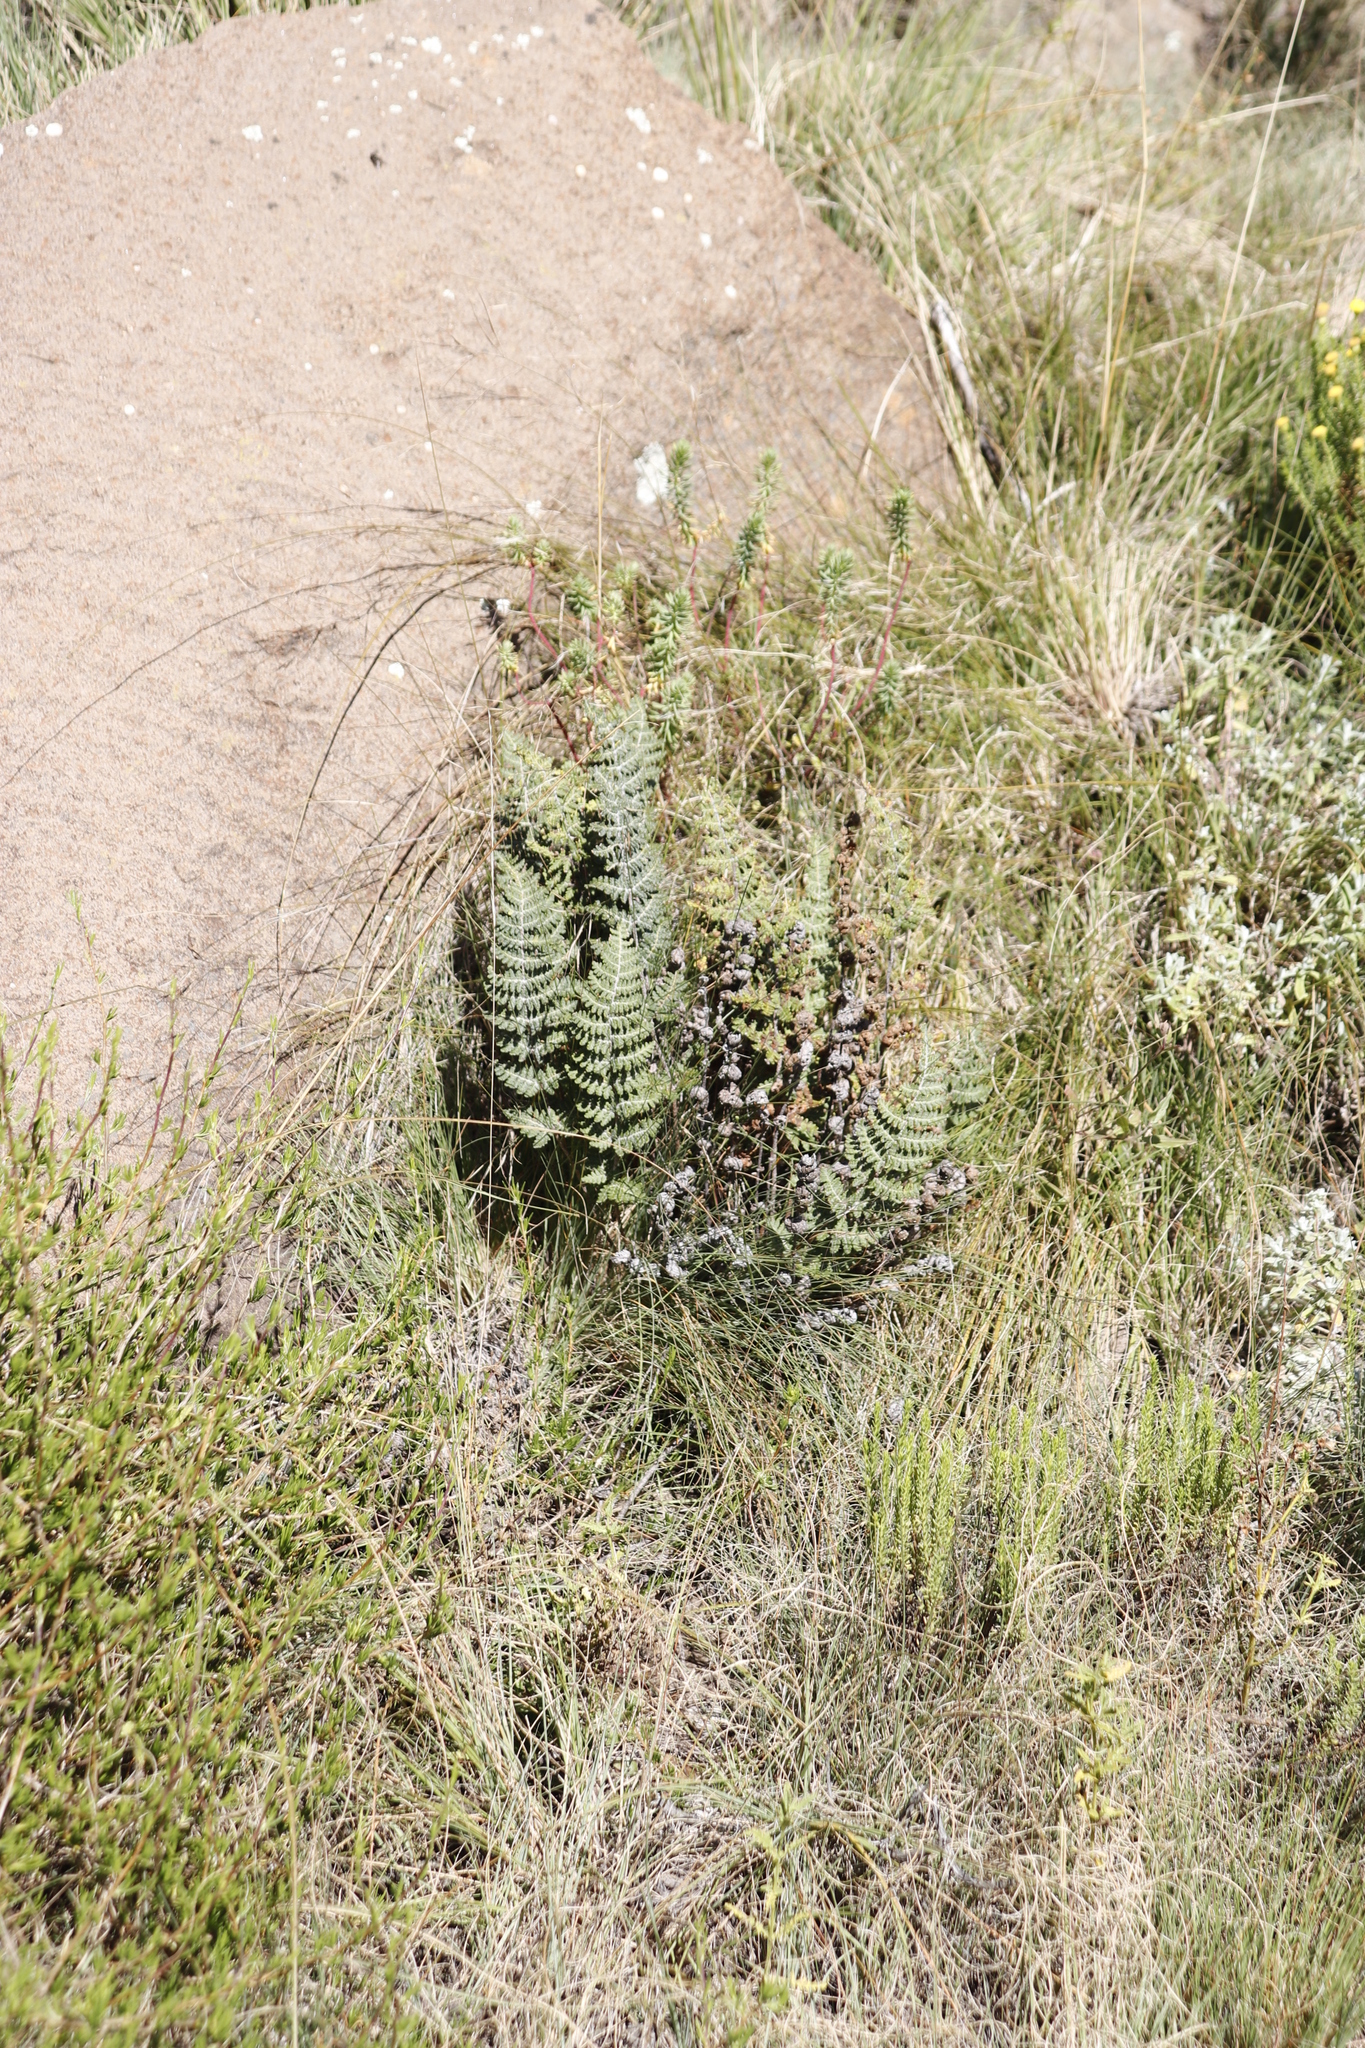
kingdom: Plantae
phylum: Tracheophyta
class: Polypodiopsida
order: Polypodiales
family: Pteridaceae
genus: Cheilanthes
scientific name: Cheilanthes eckloniana
